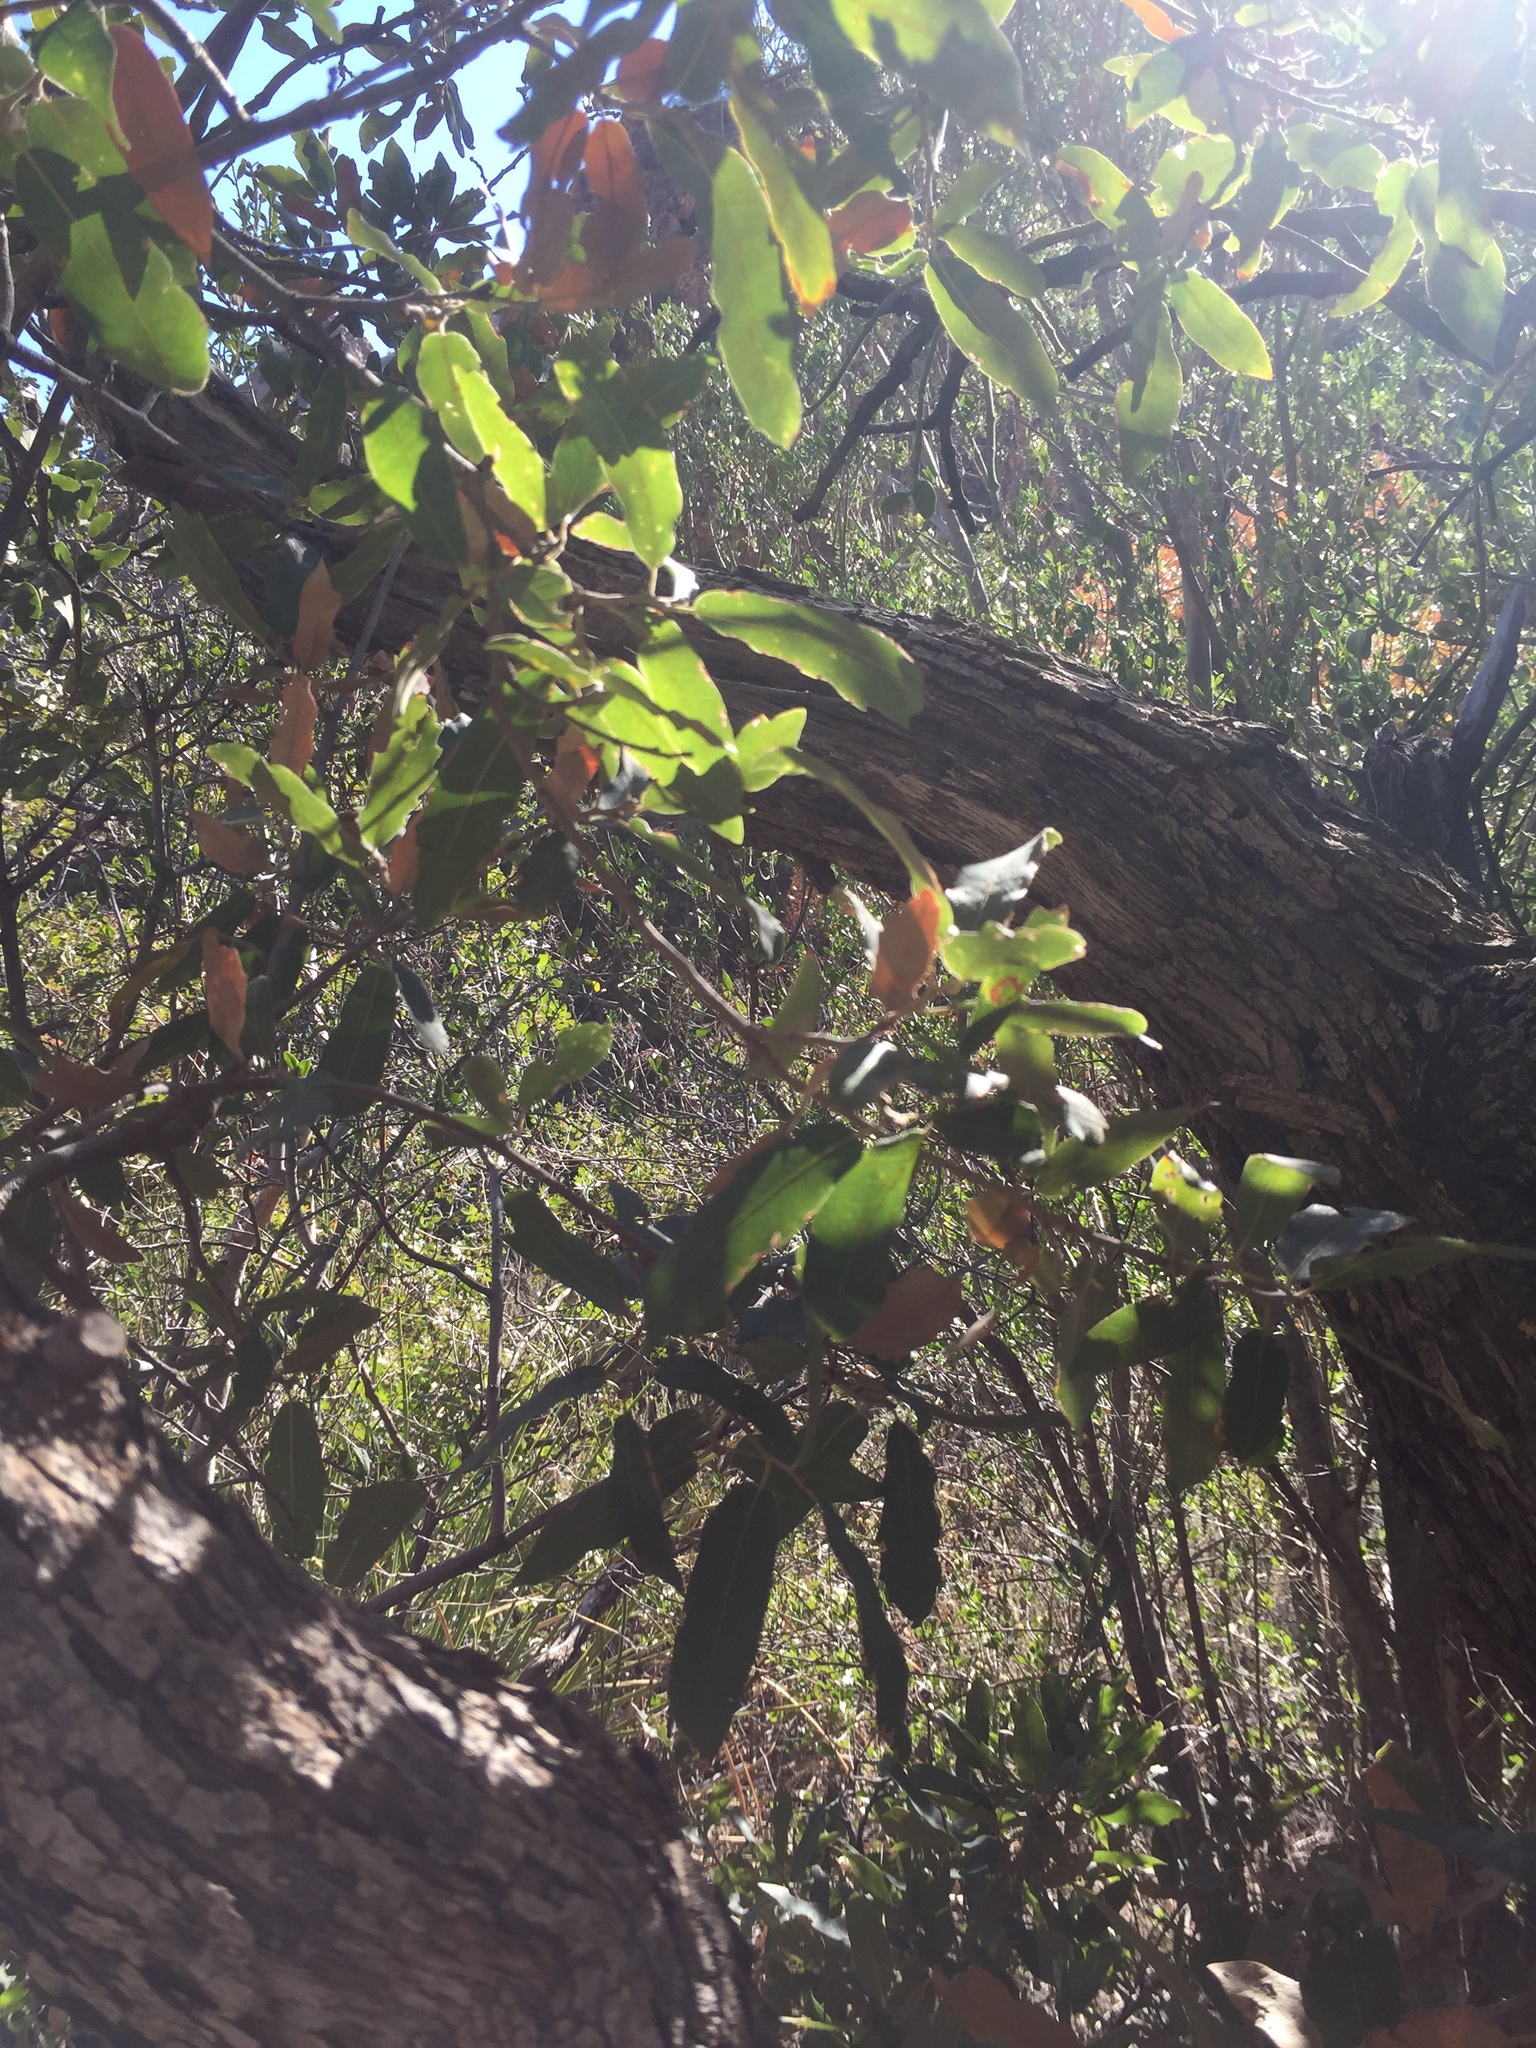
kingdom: Plantae
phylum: Tracheophyta
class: Magnoliopsida
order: Fagales
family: Fagaceae
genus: Quercus
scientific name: Quercus grisea
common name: Gray oak
